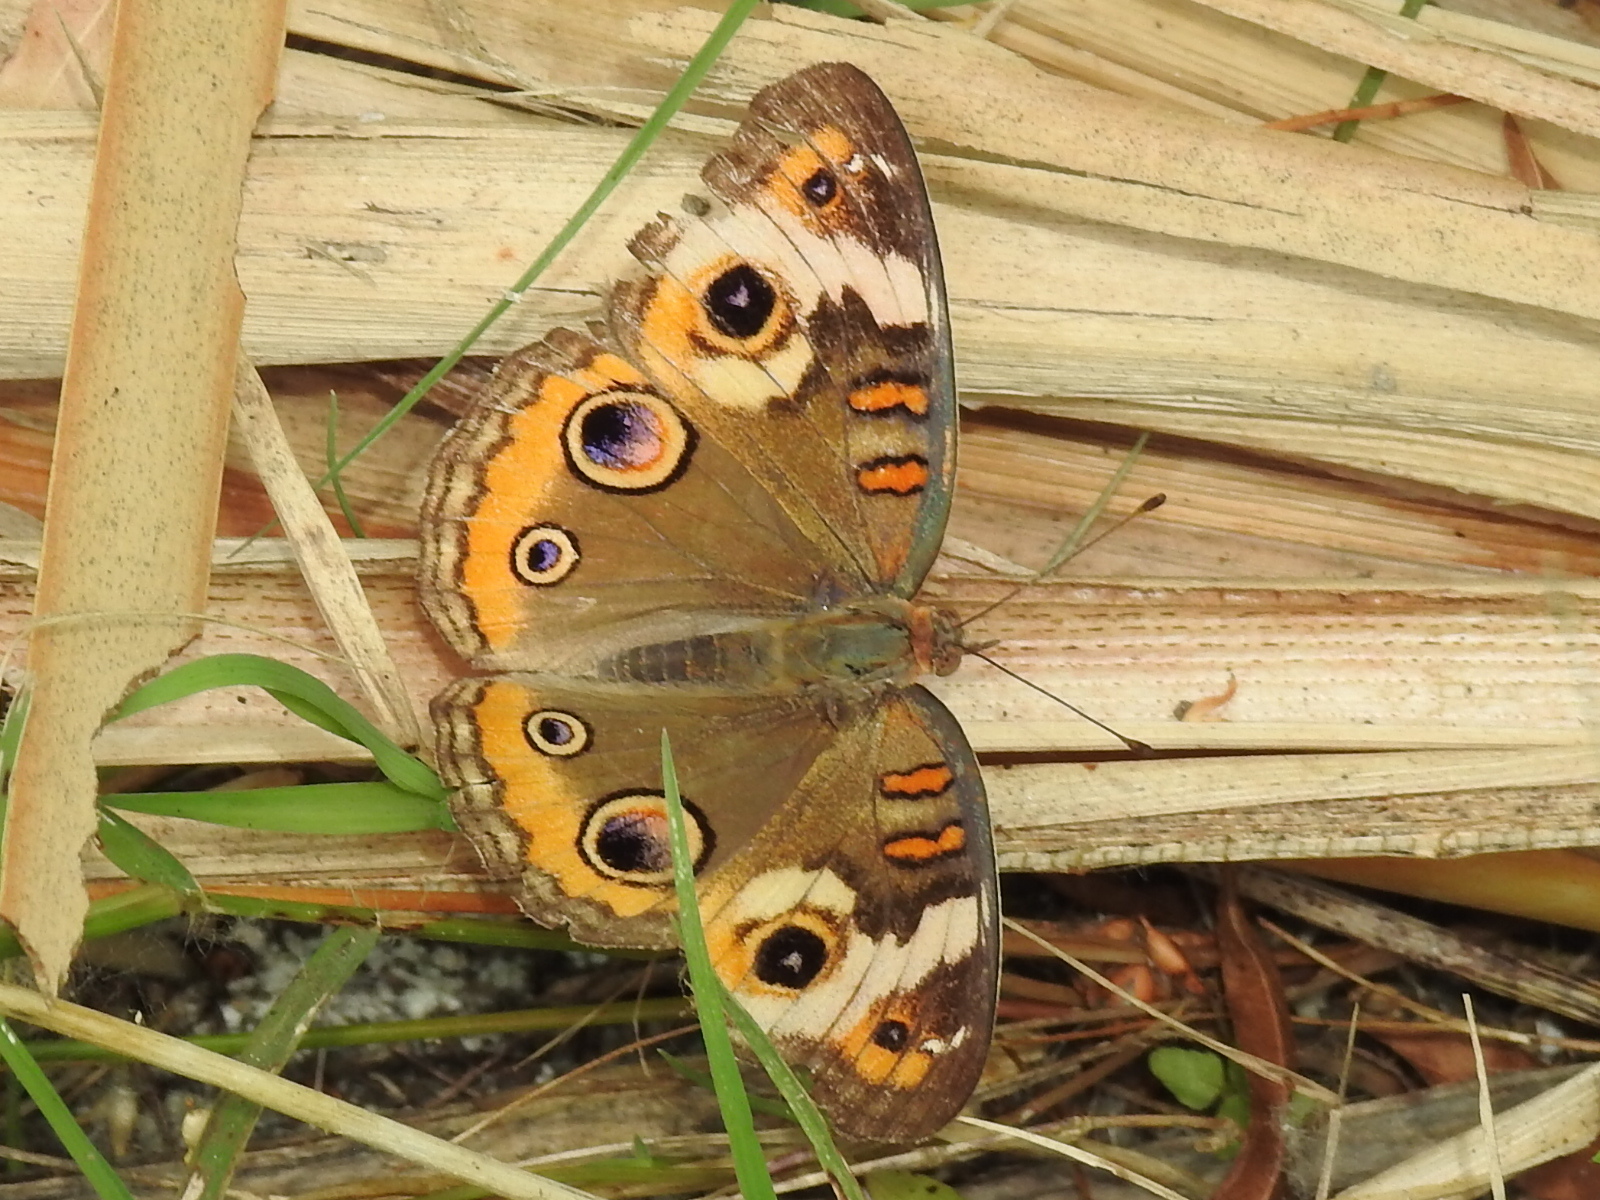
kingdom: Animalia
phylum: Arthropoda
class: Insecta
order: Lepidoptera
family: Nymphalidae
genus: Junonia
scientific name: Junonia coenia
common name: Common buckeye
